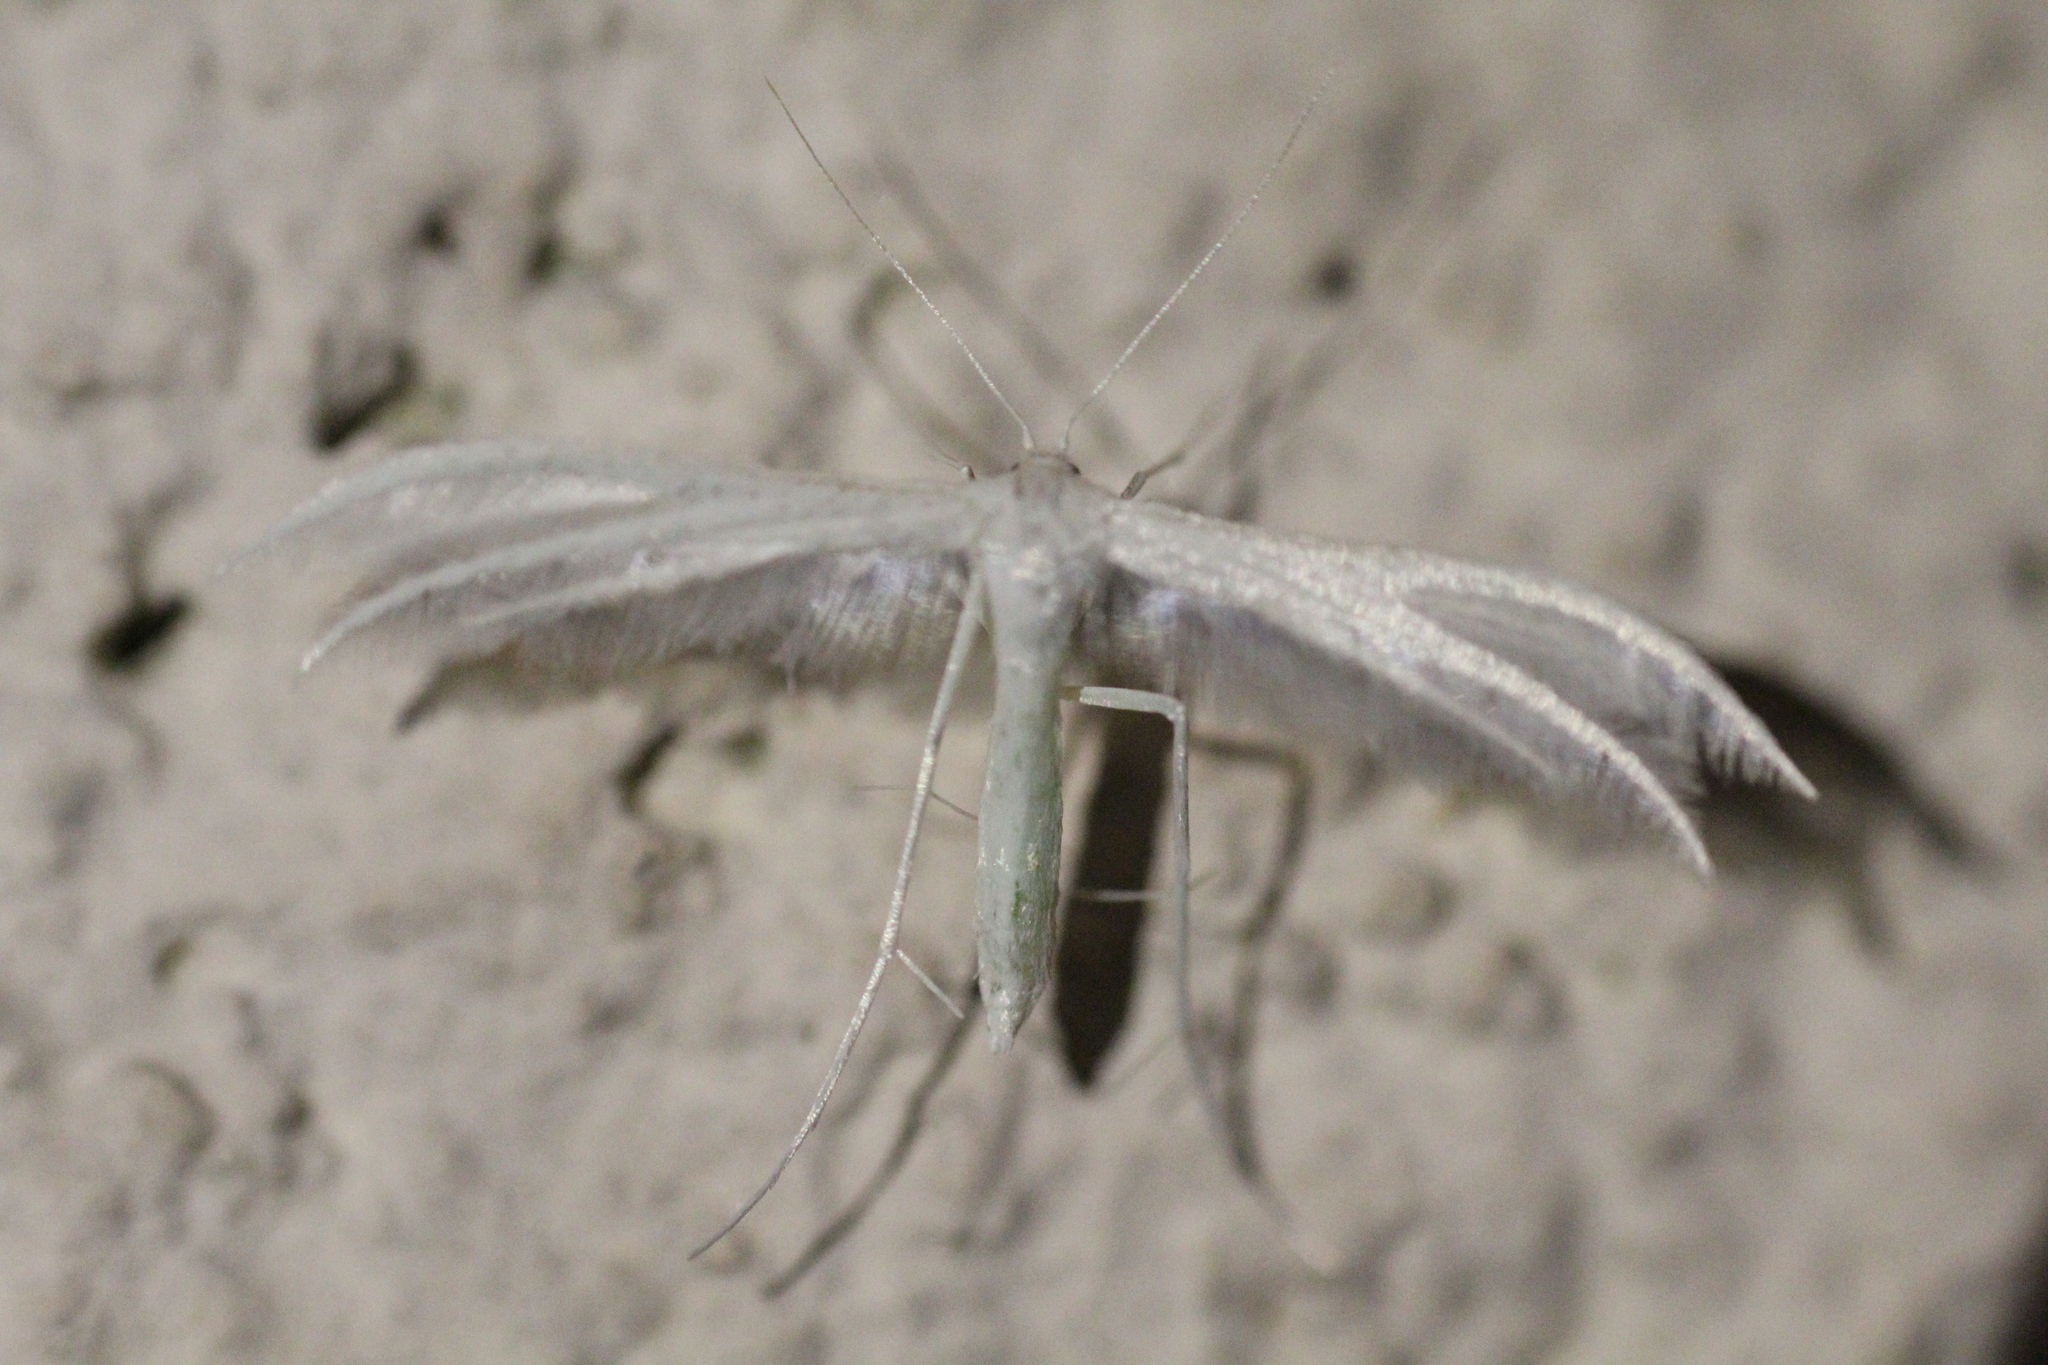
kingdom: Animalia
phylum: Arthropoda
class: Insecta
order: Lepidoptera
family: Pterophoridae
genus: Pterophorus
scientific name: Pterophorus pentadactyla
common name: White plume moth
